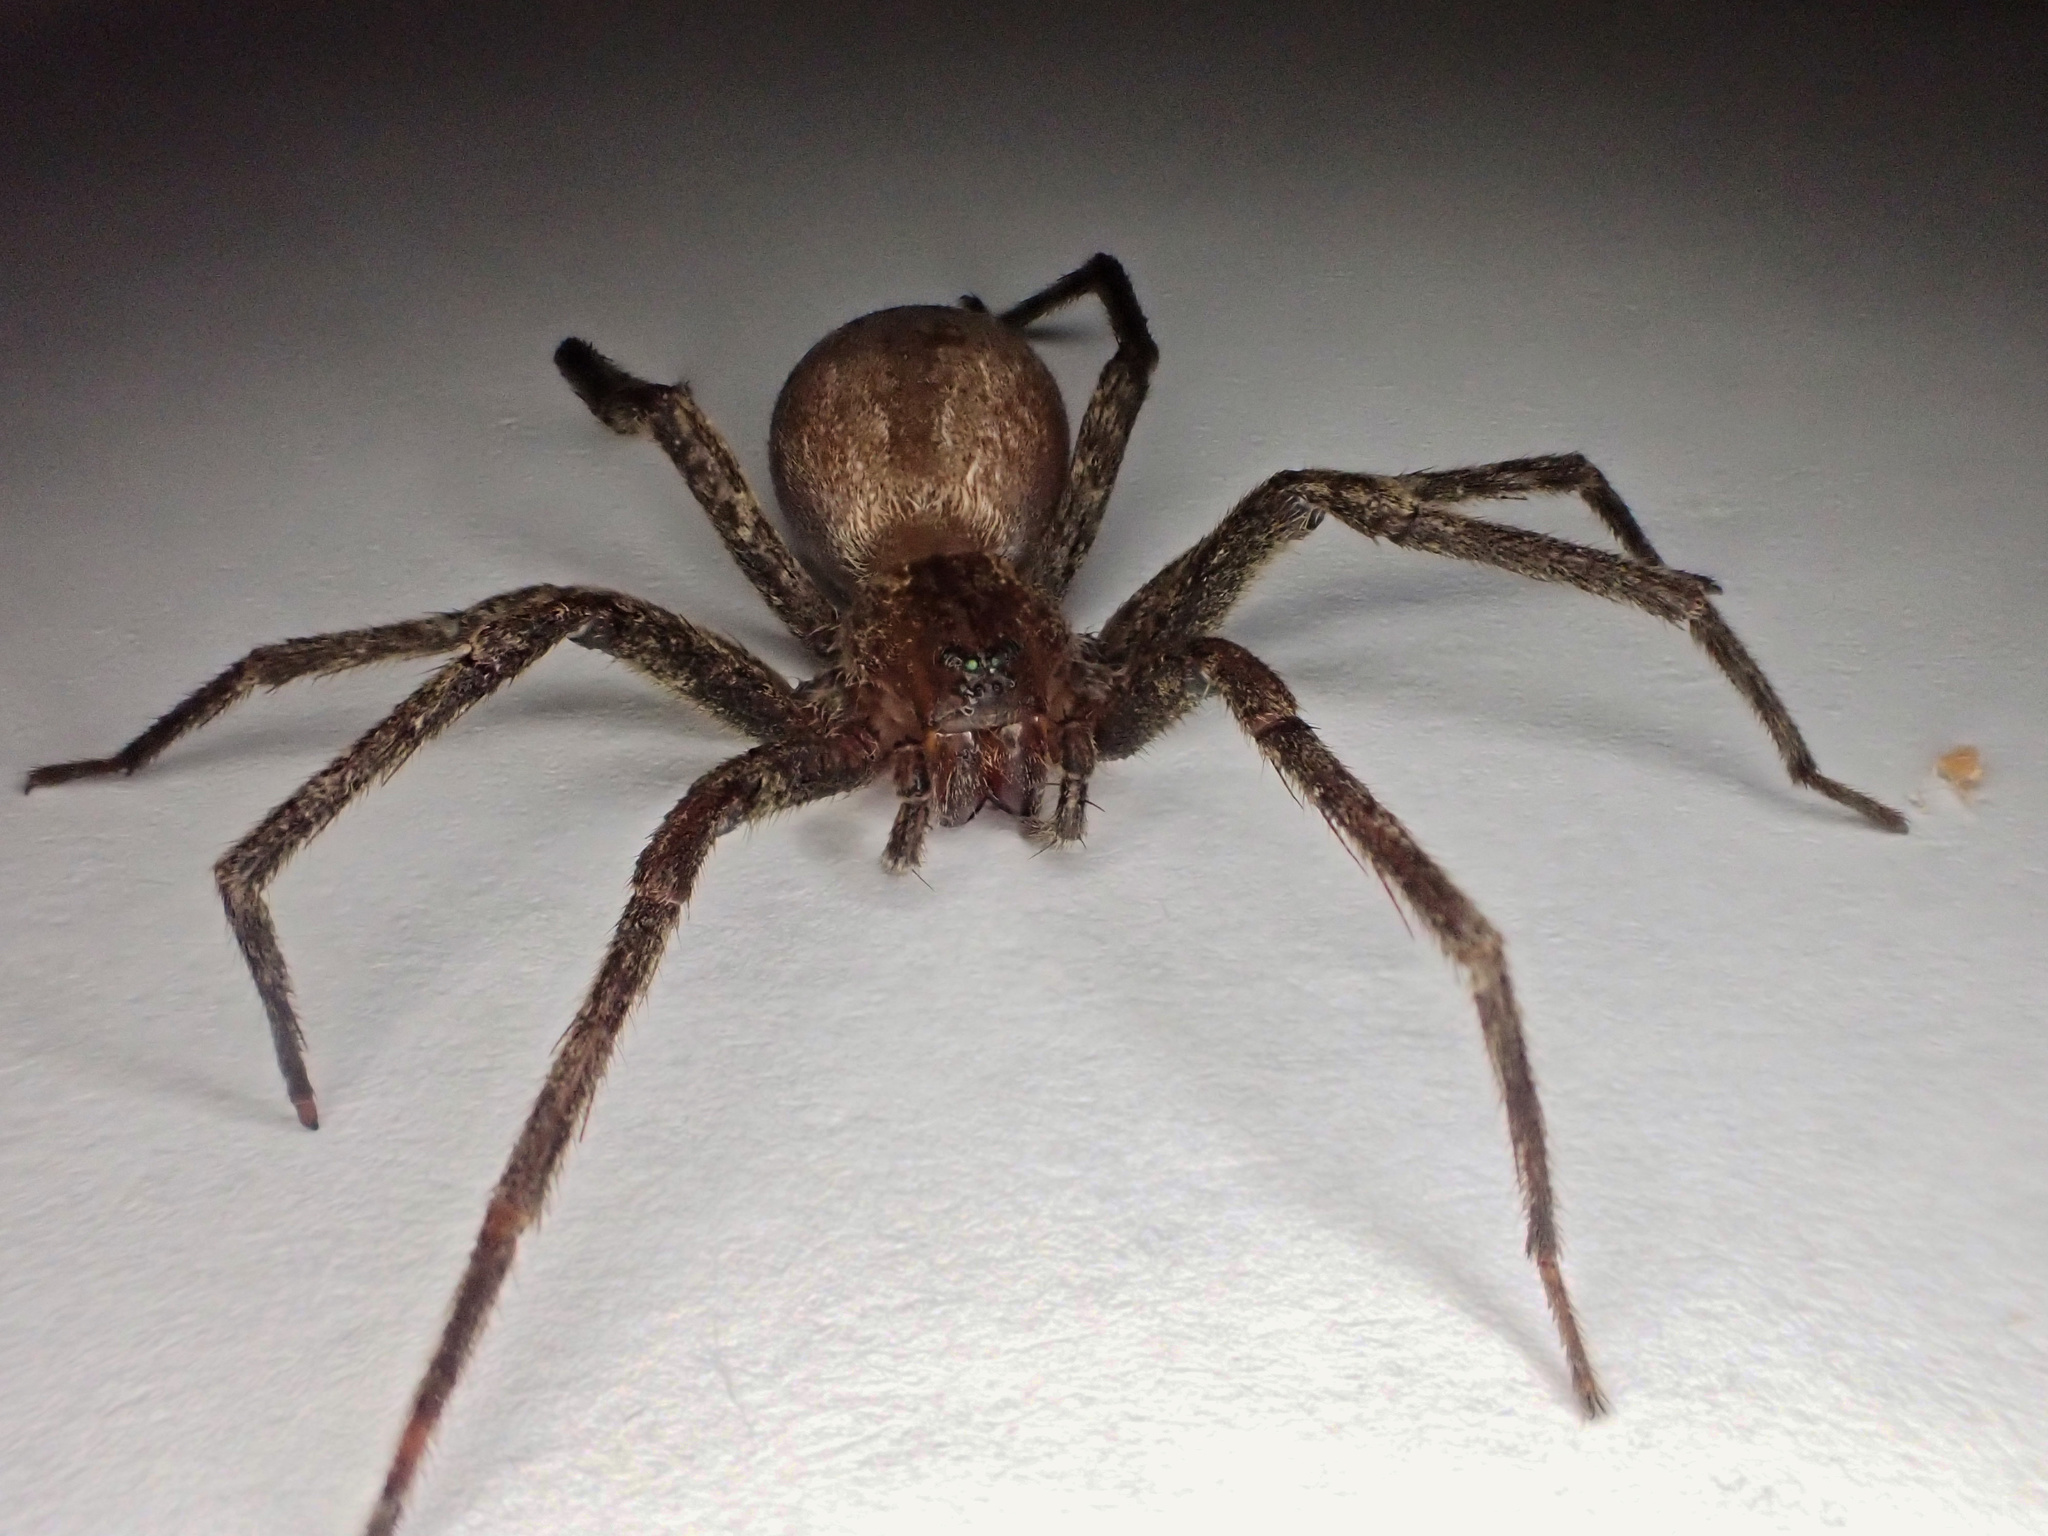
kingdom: Animalia
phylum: Arthropoda
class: Arachnida
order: Araneae
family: Pisauridae
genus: Pisaurina
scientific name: Pisaurina mira
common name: American nursery web spider
